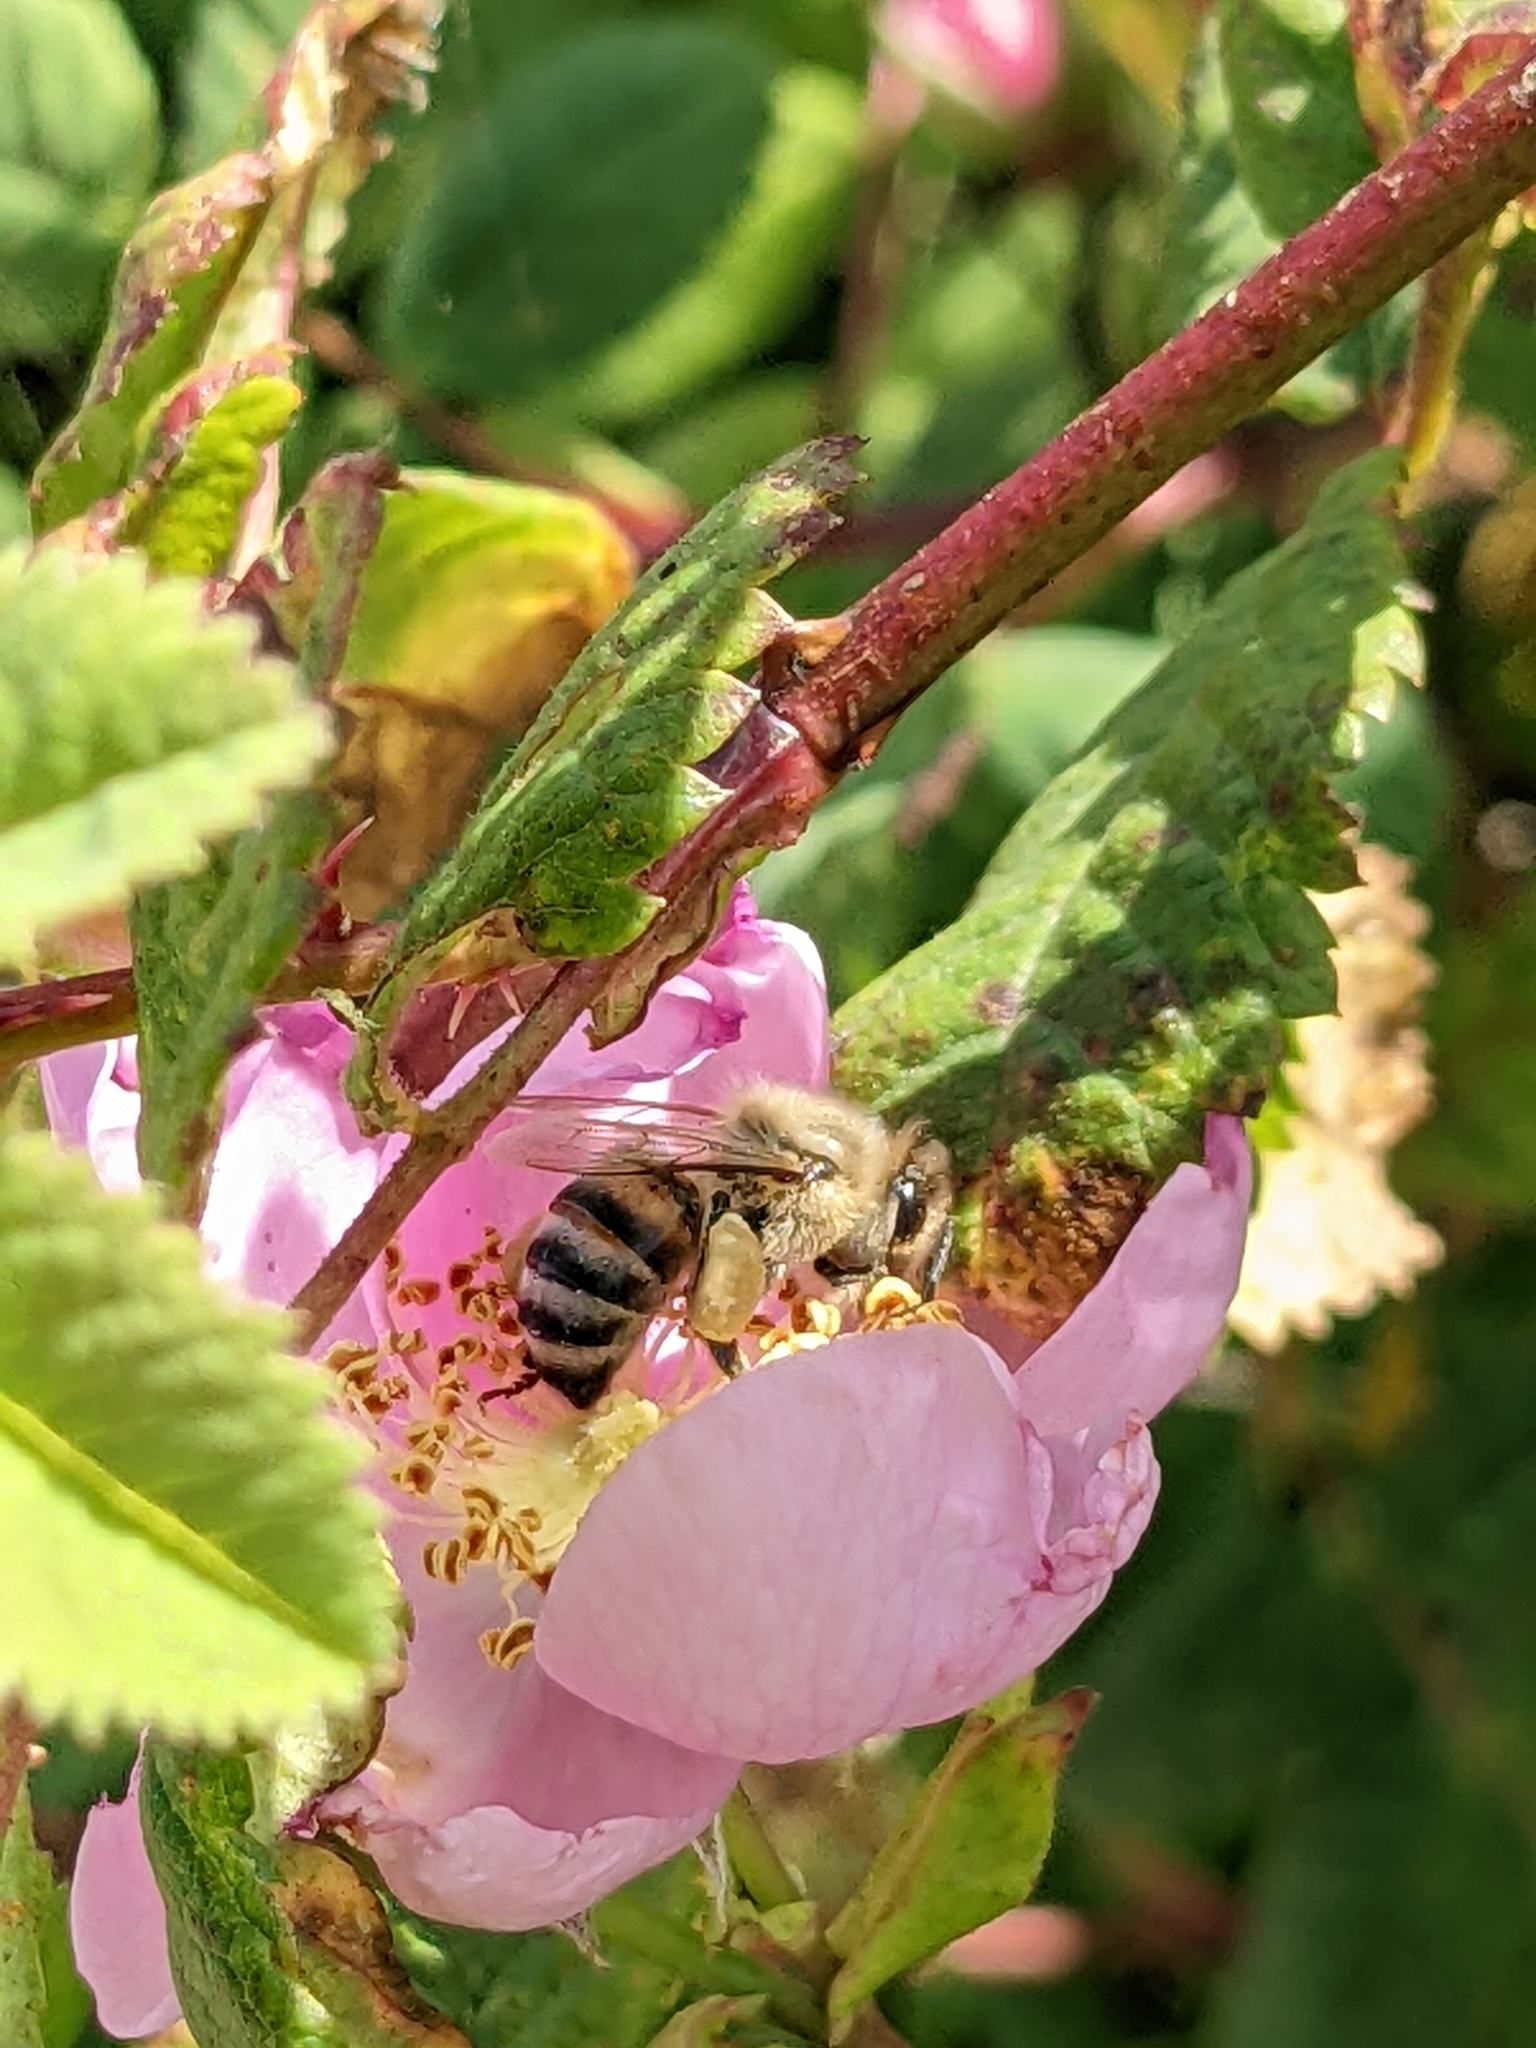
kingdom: Animalia
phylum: Arthropoda
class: Insecta
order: Hymenoptera
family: Apidae
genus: Apis
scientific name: Apis mellifera
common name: Honey bee
